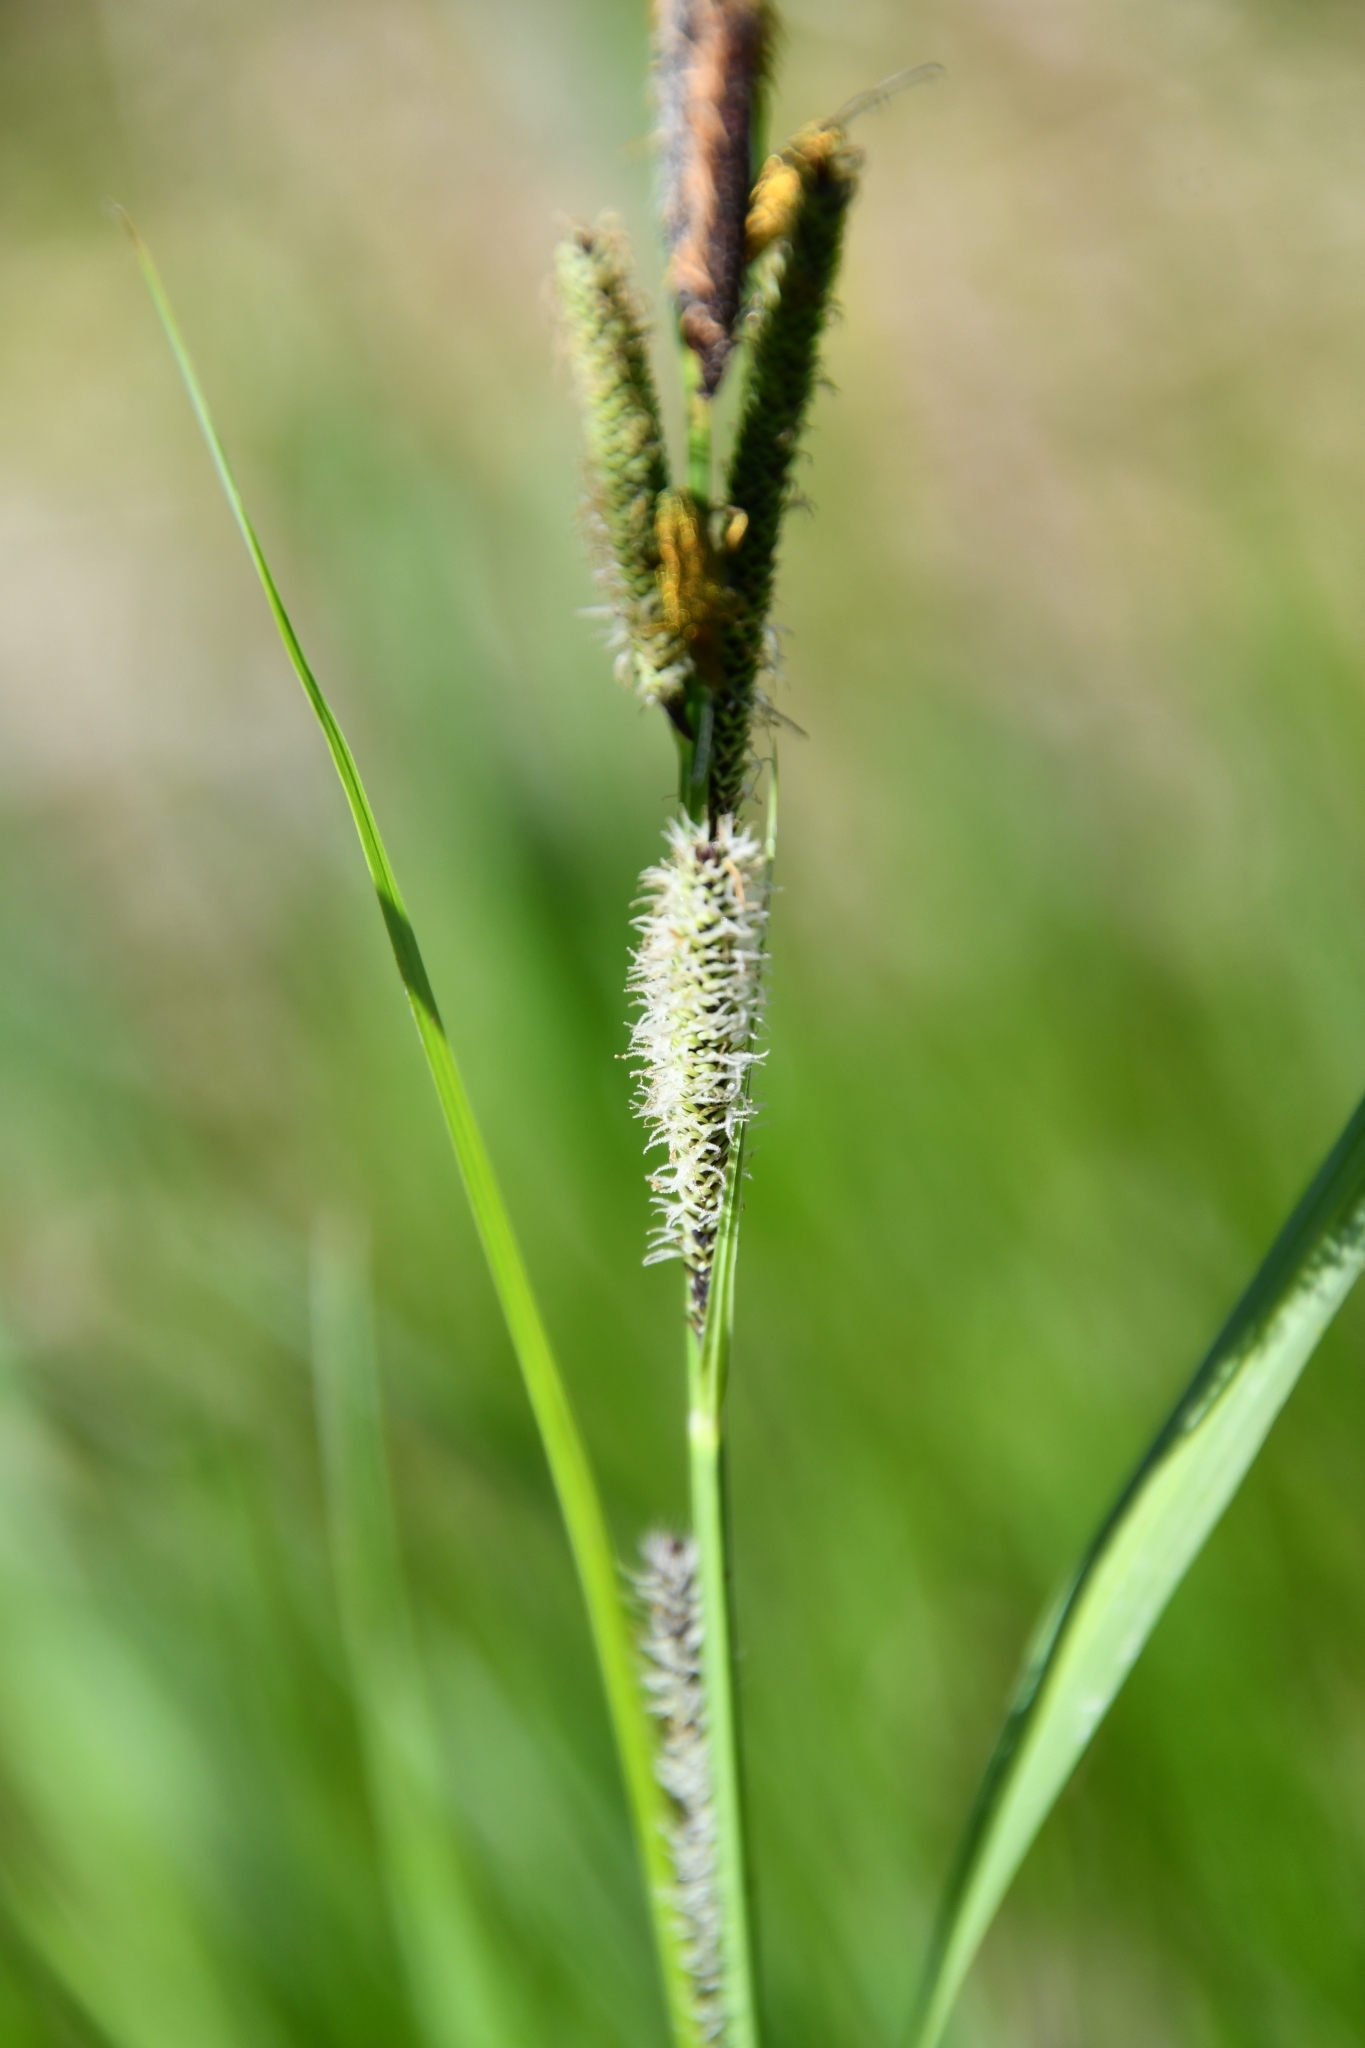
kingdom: Plantae
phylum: Tracheophyta
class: Liliopsida
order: Poales
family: Cyperaceae
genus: Carex
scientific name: Carex acuta
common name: Slender tufted-sedge
